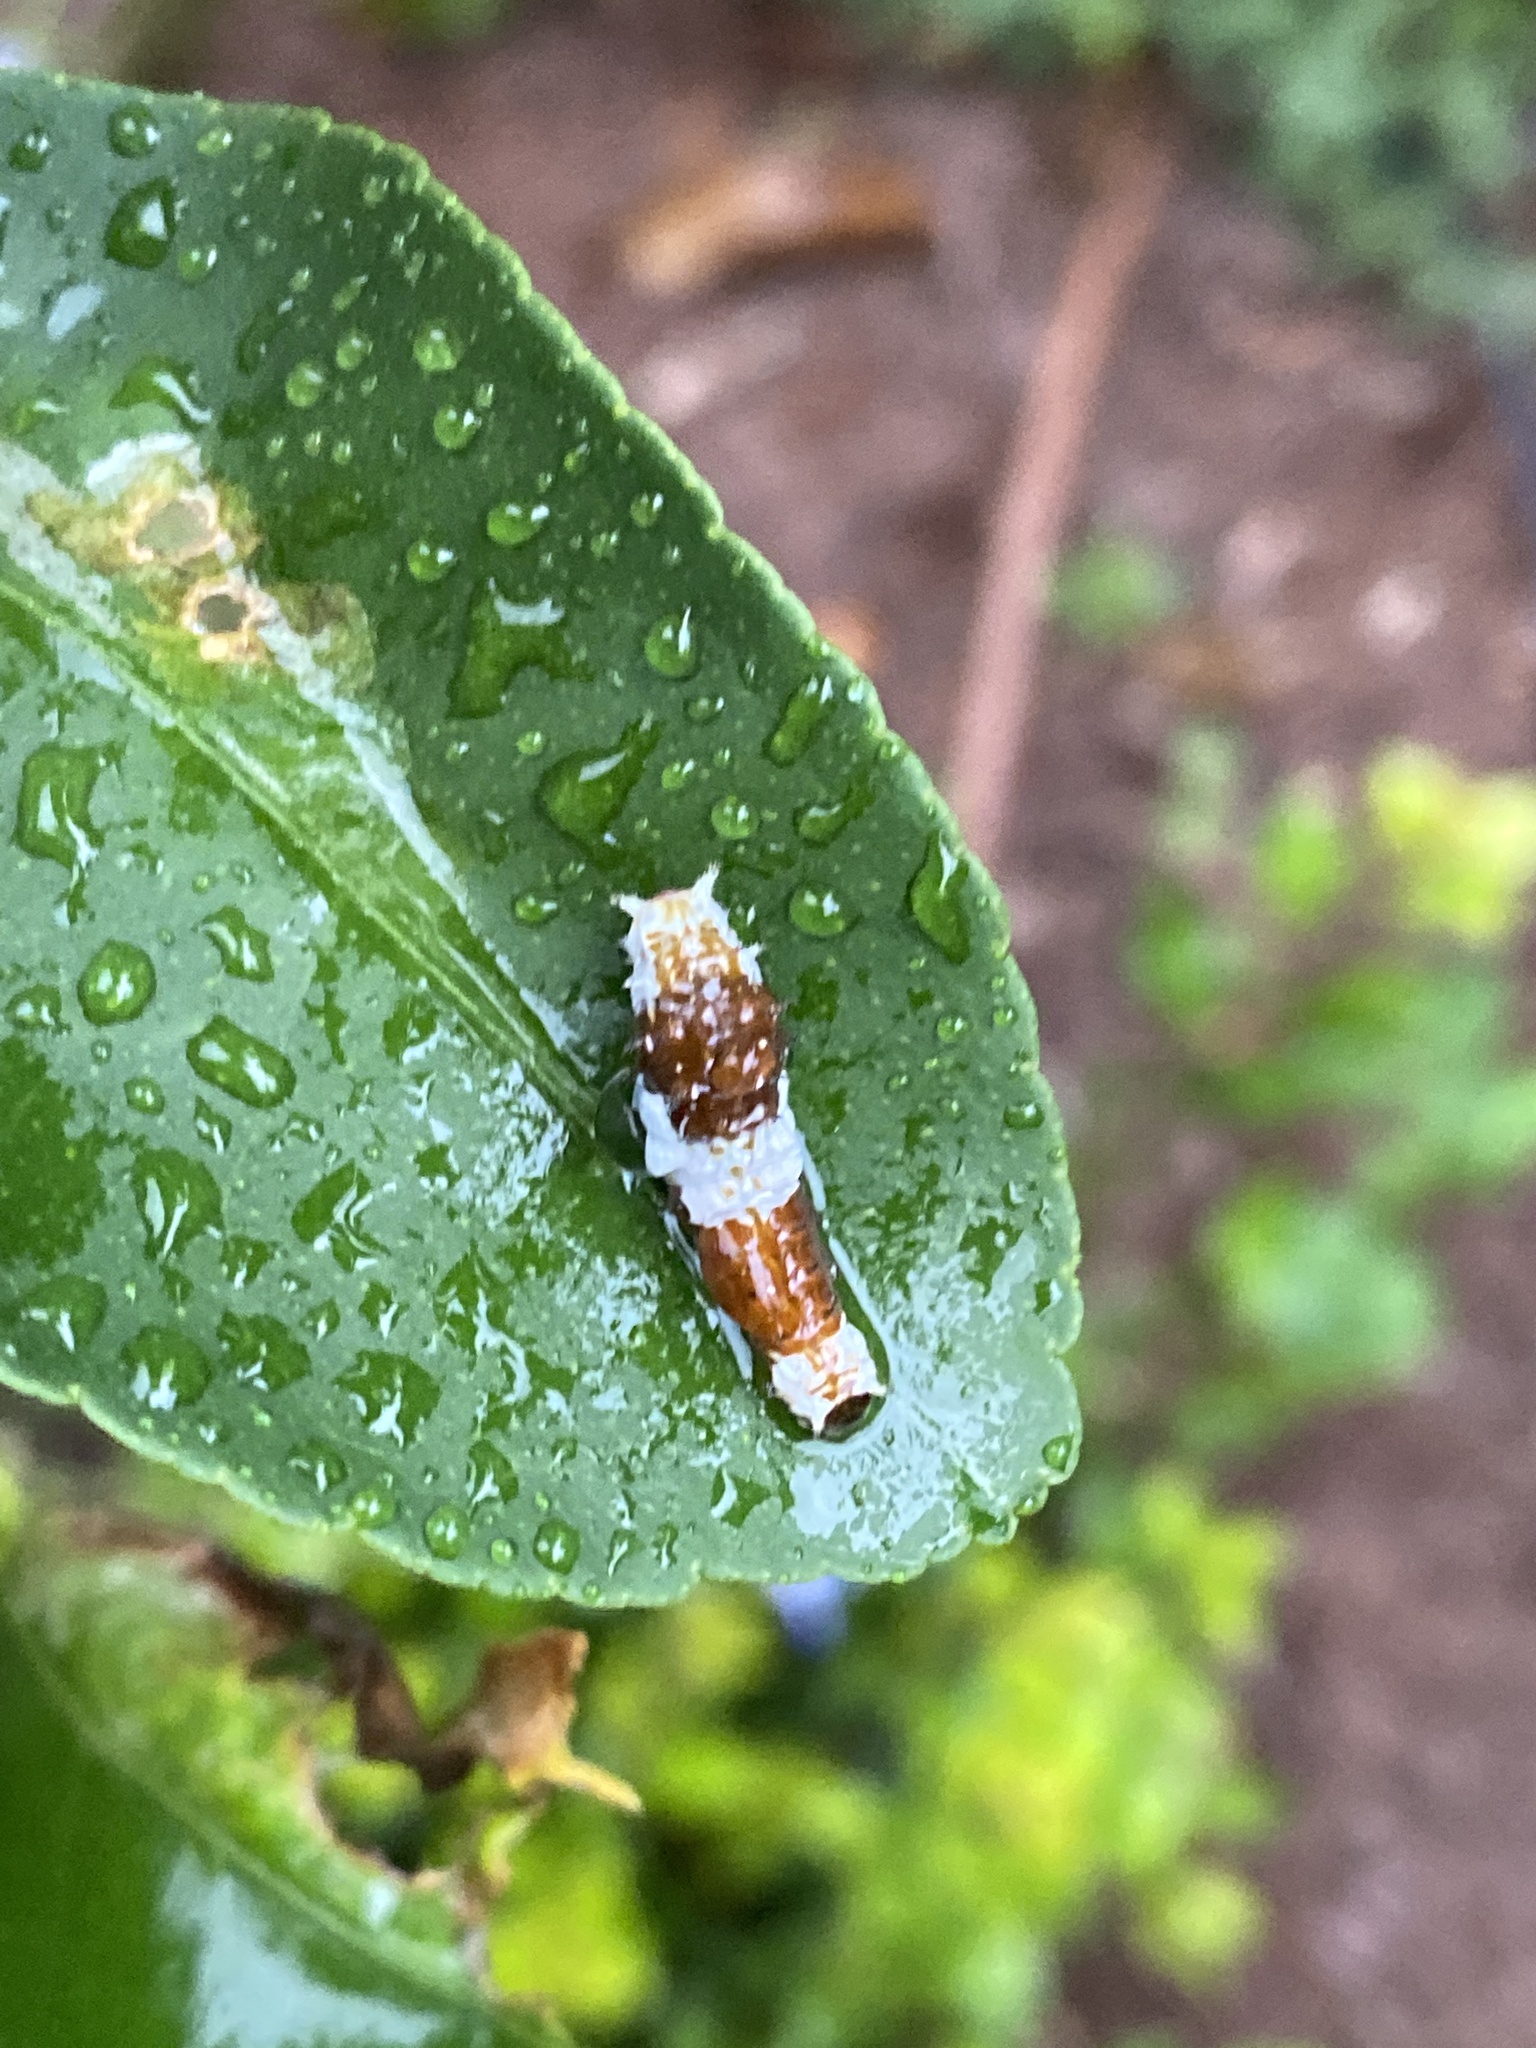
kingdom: Animalia
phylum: Arthropoda
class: Insecta
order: Lepidoptera
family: Papilionidae
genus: Papilio
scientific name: Papilio aegeus
